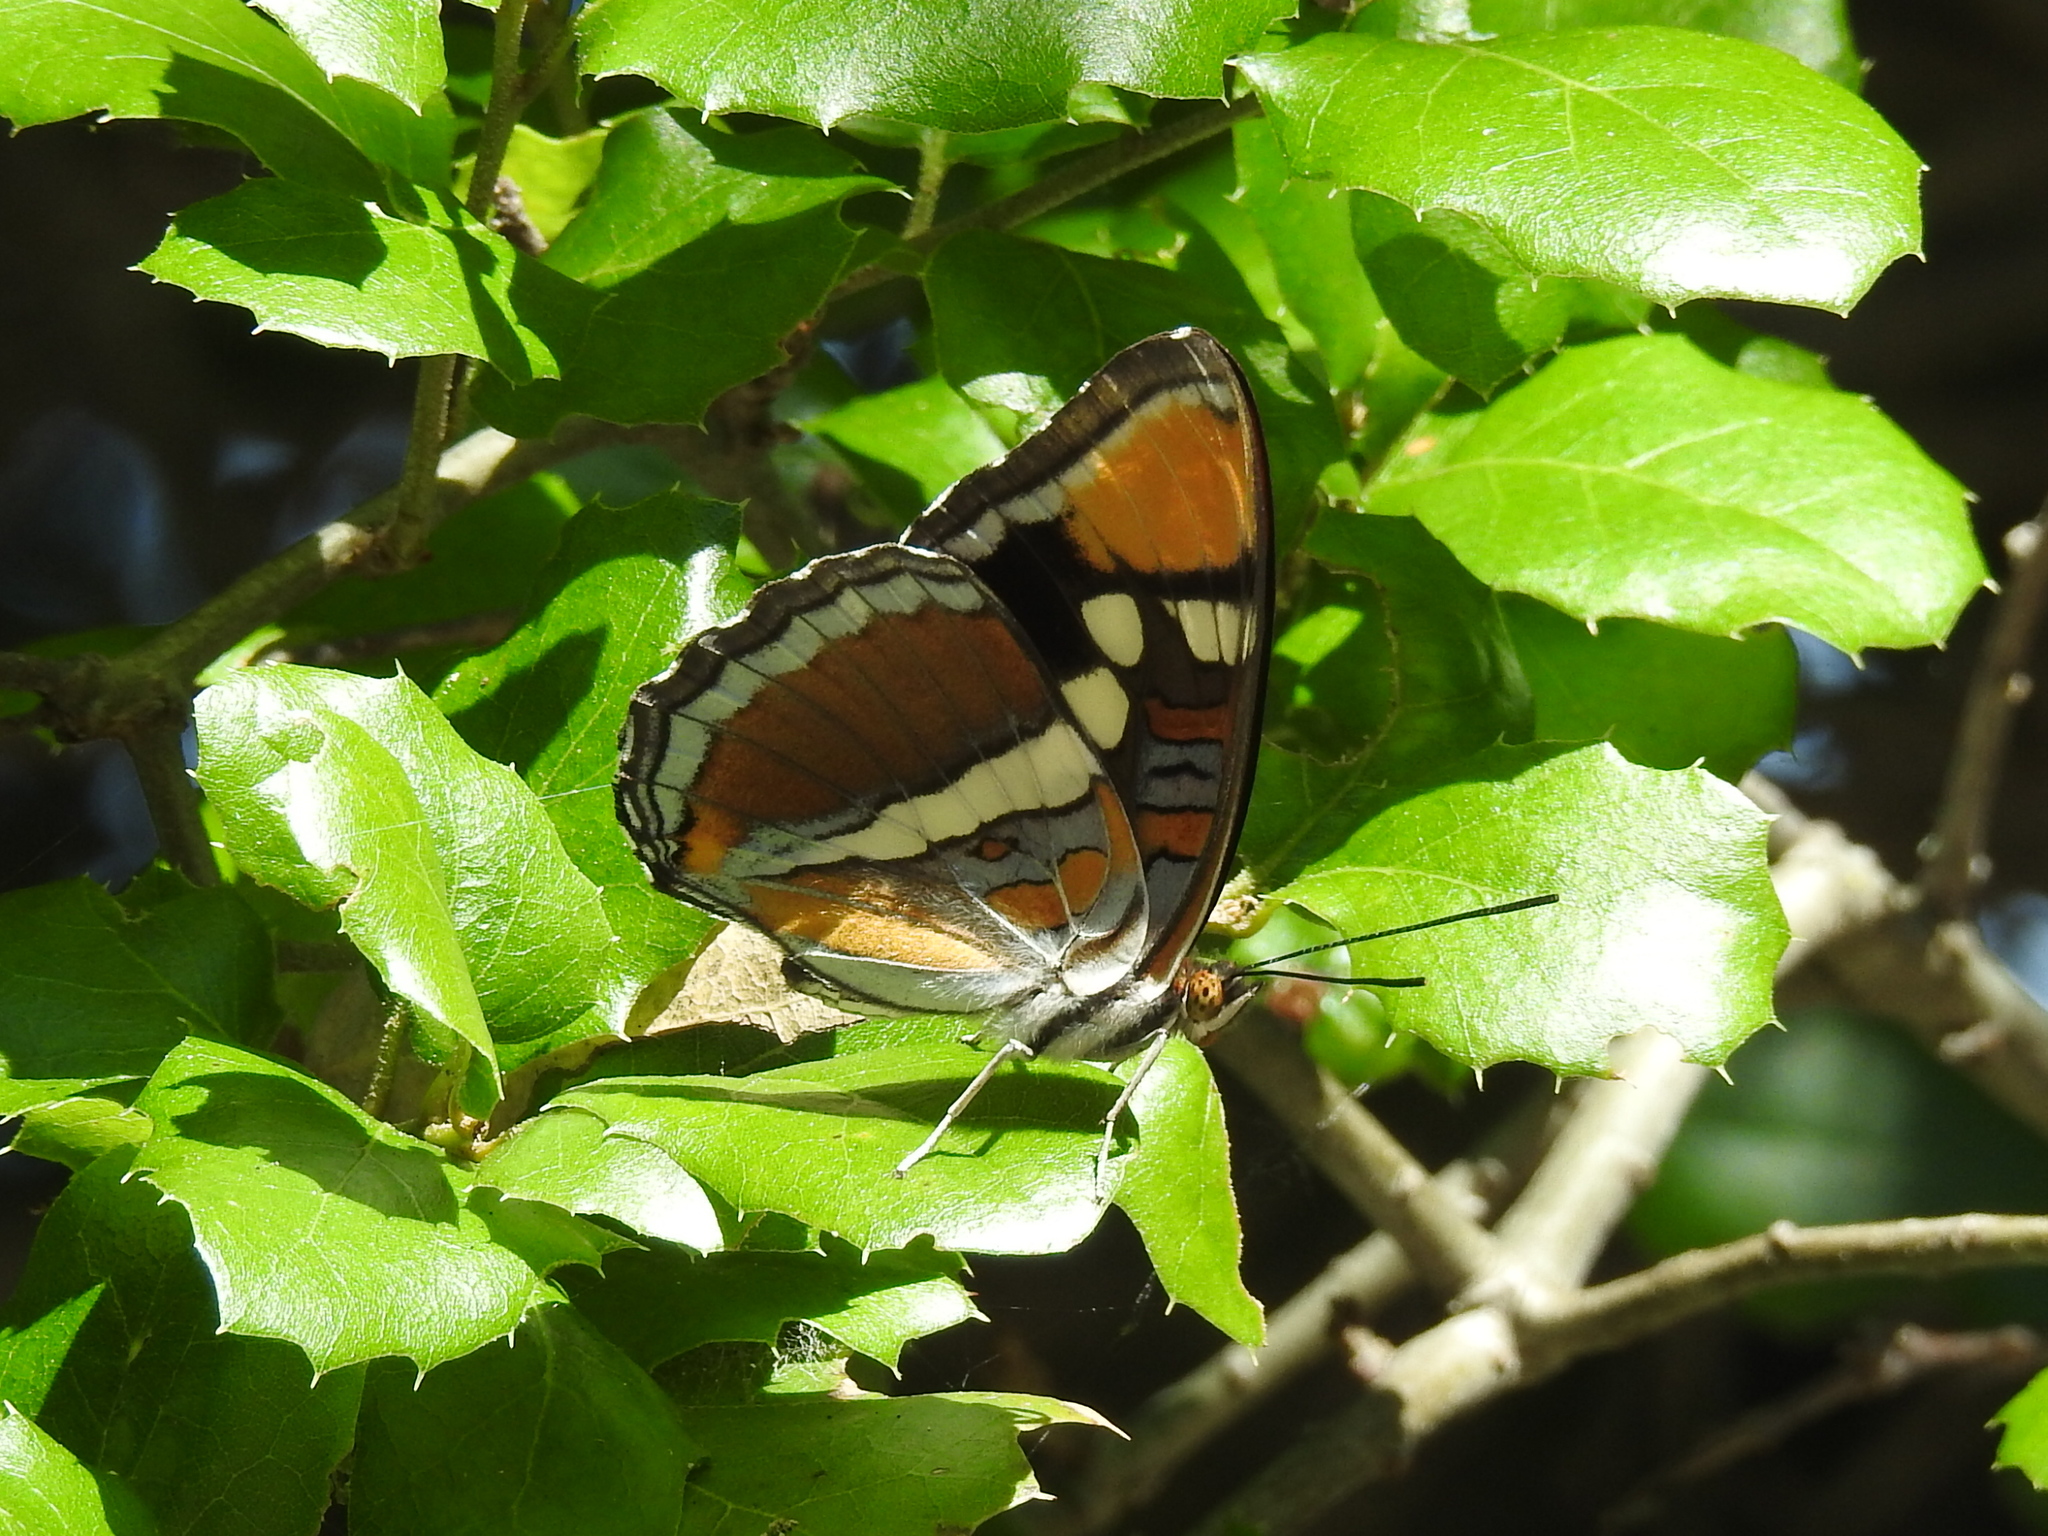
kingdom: Animalia
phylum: Arthropoda
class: Insecta
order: Lepidoptera
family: Nymphalidae
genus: Limenitis
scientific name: Limenitis bredowii
